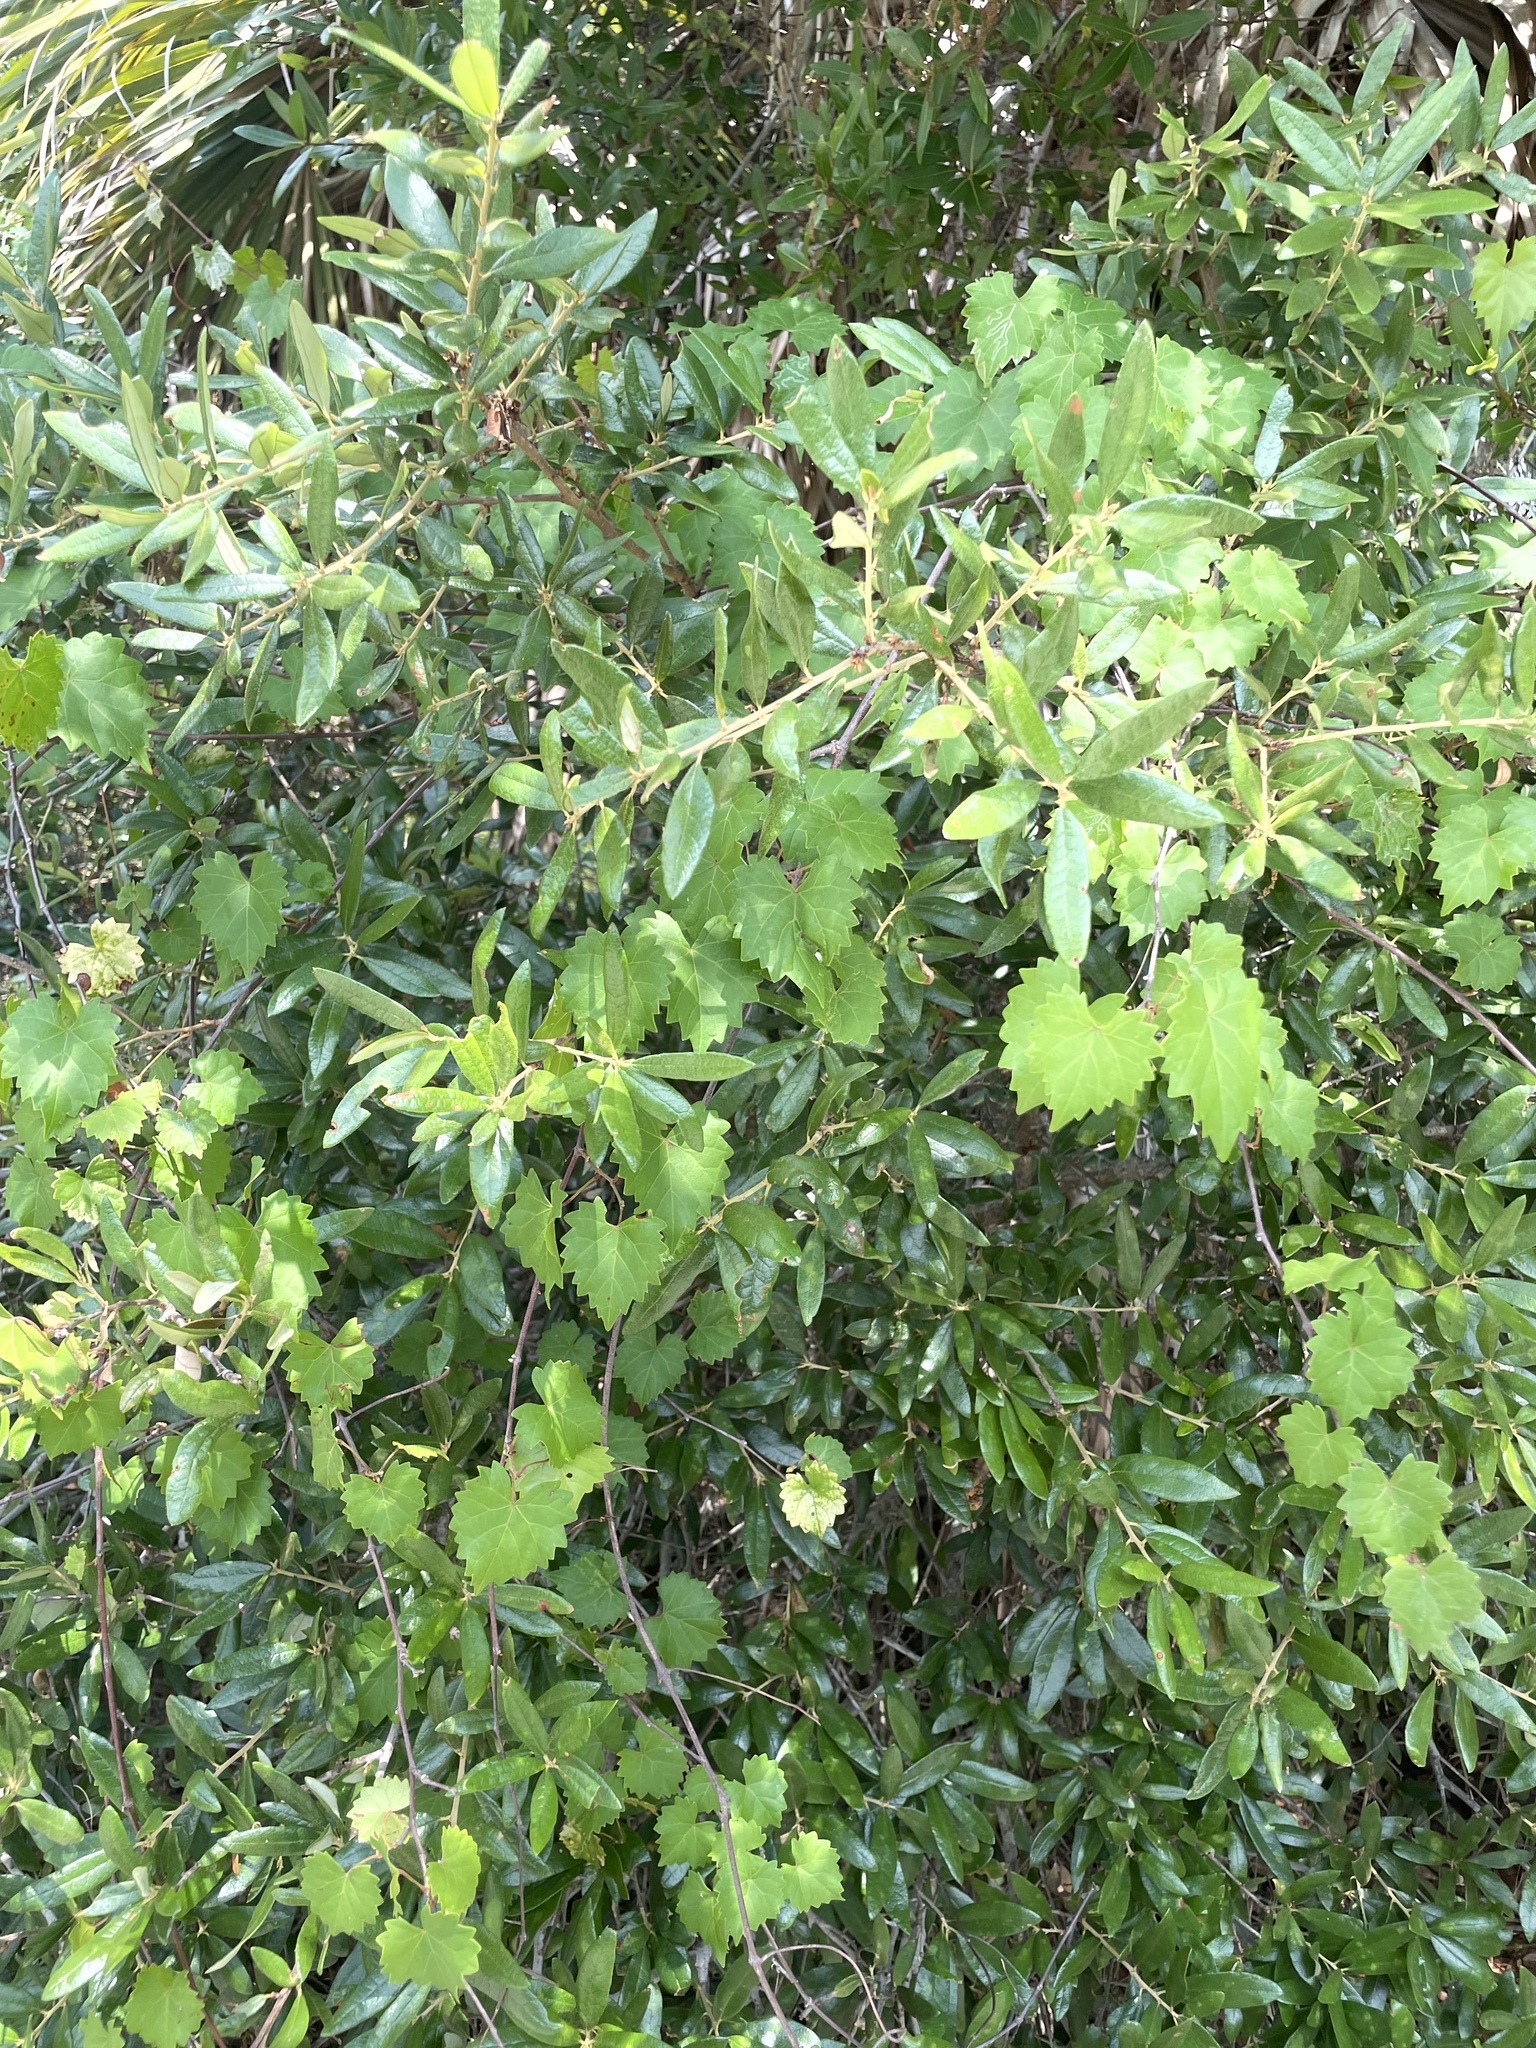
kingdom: Plantae
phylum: Tracheophyta
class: Magnoliopsida
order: Vitales
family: Vitaceae
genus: Vitis
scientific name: Vitis rotundifolia
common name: Muscadine grape
